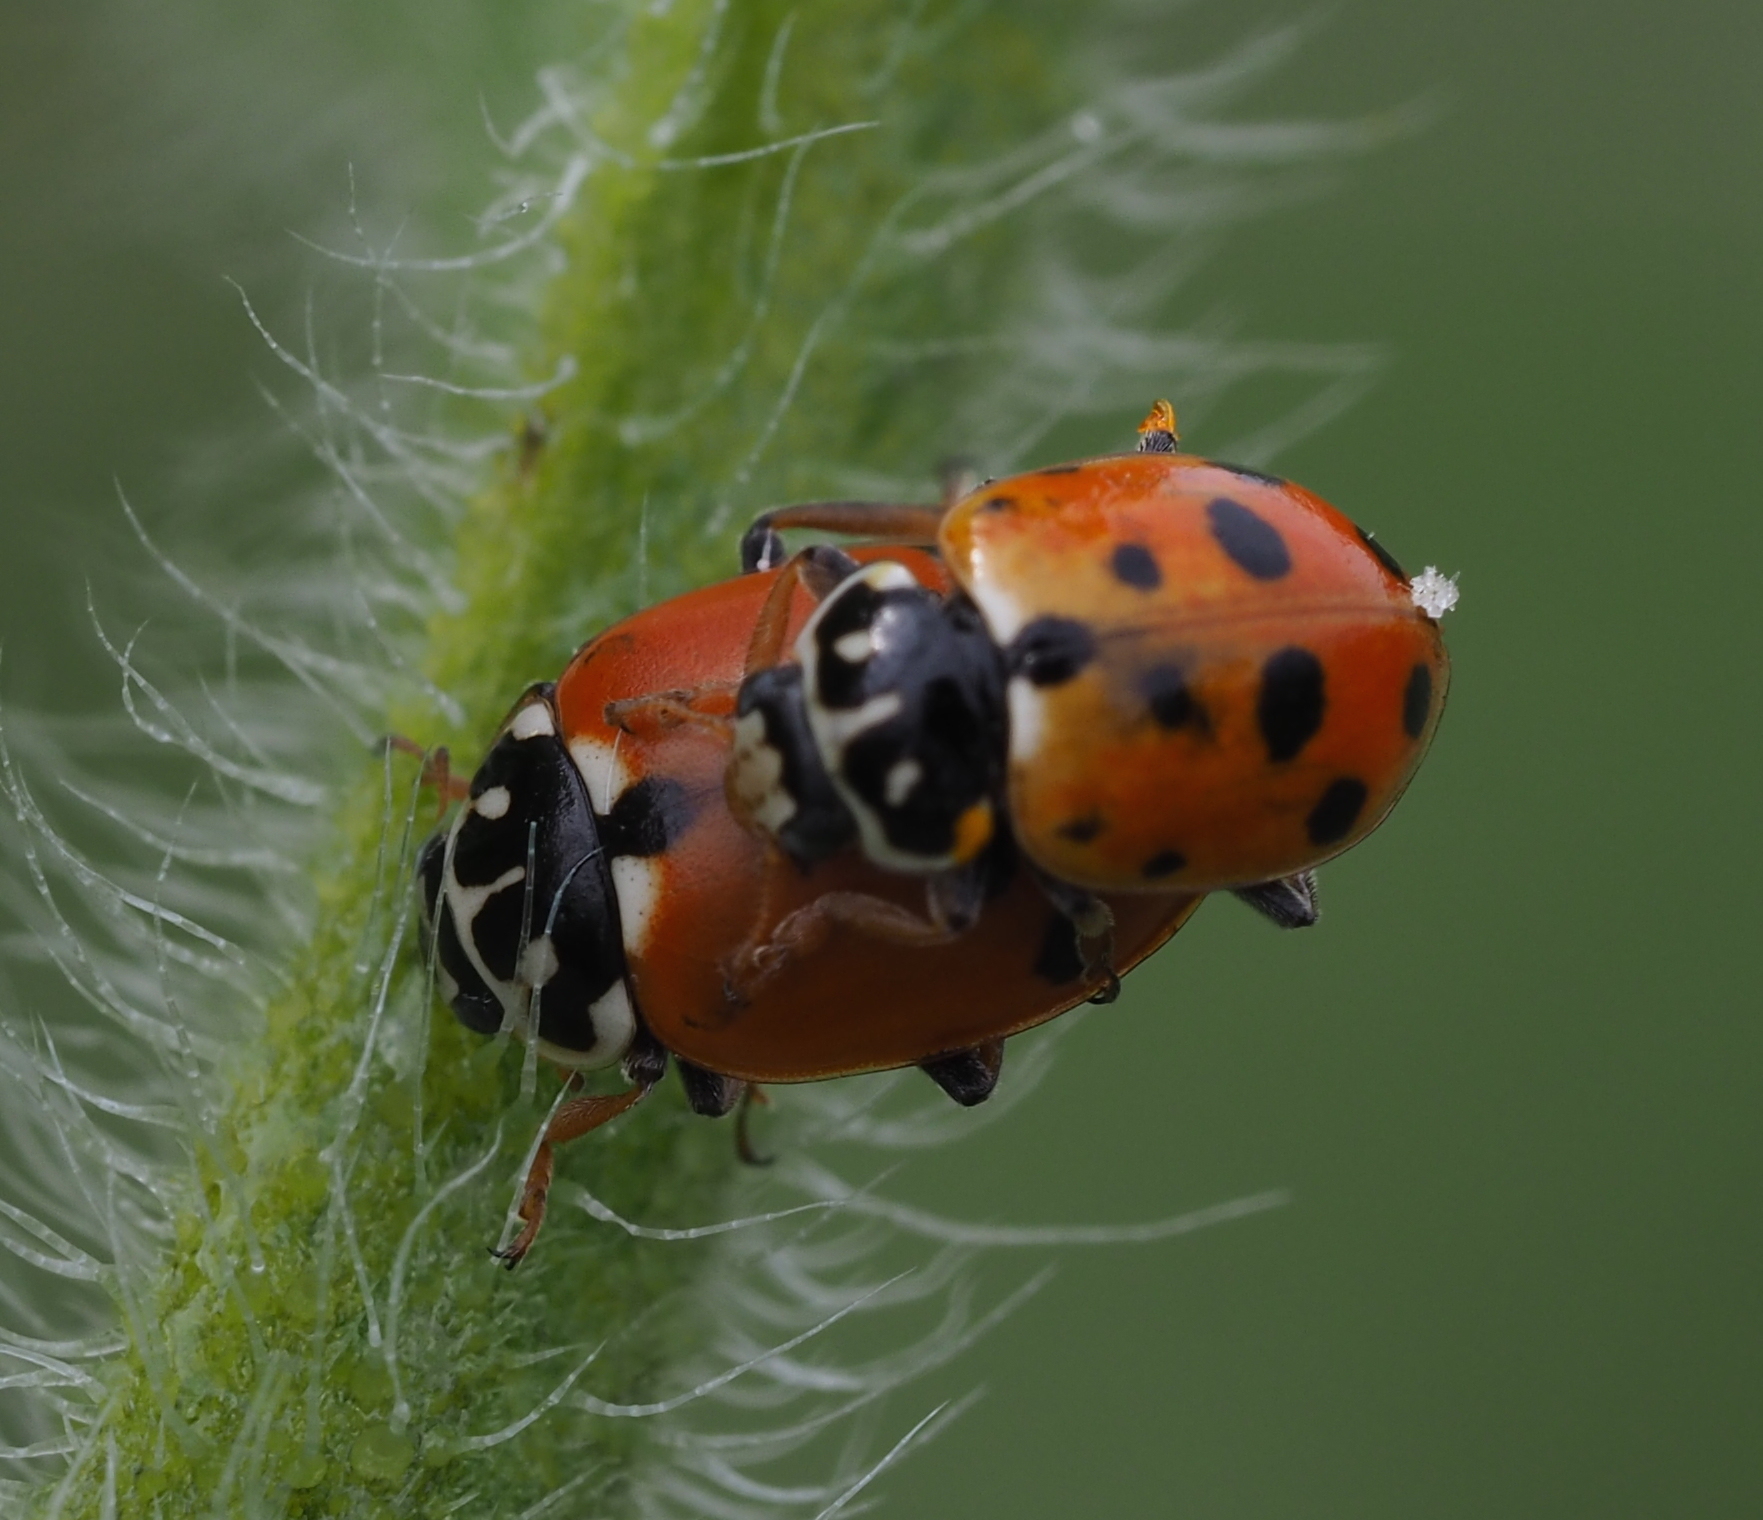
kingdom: Animalia
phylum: Arthropoda
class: Insecta
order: Coleoptera
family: Coccinellidae
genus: Hippodamia
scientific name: Hippodamia variegata
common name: Ladybird beetle
